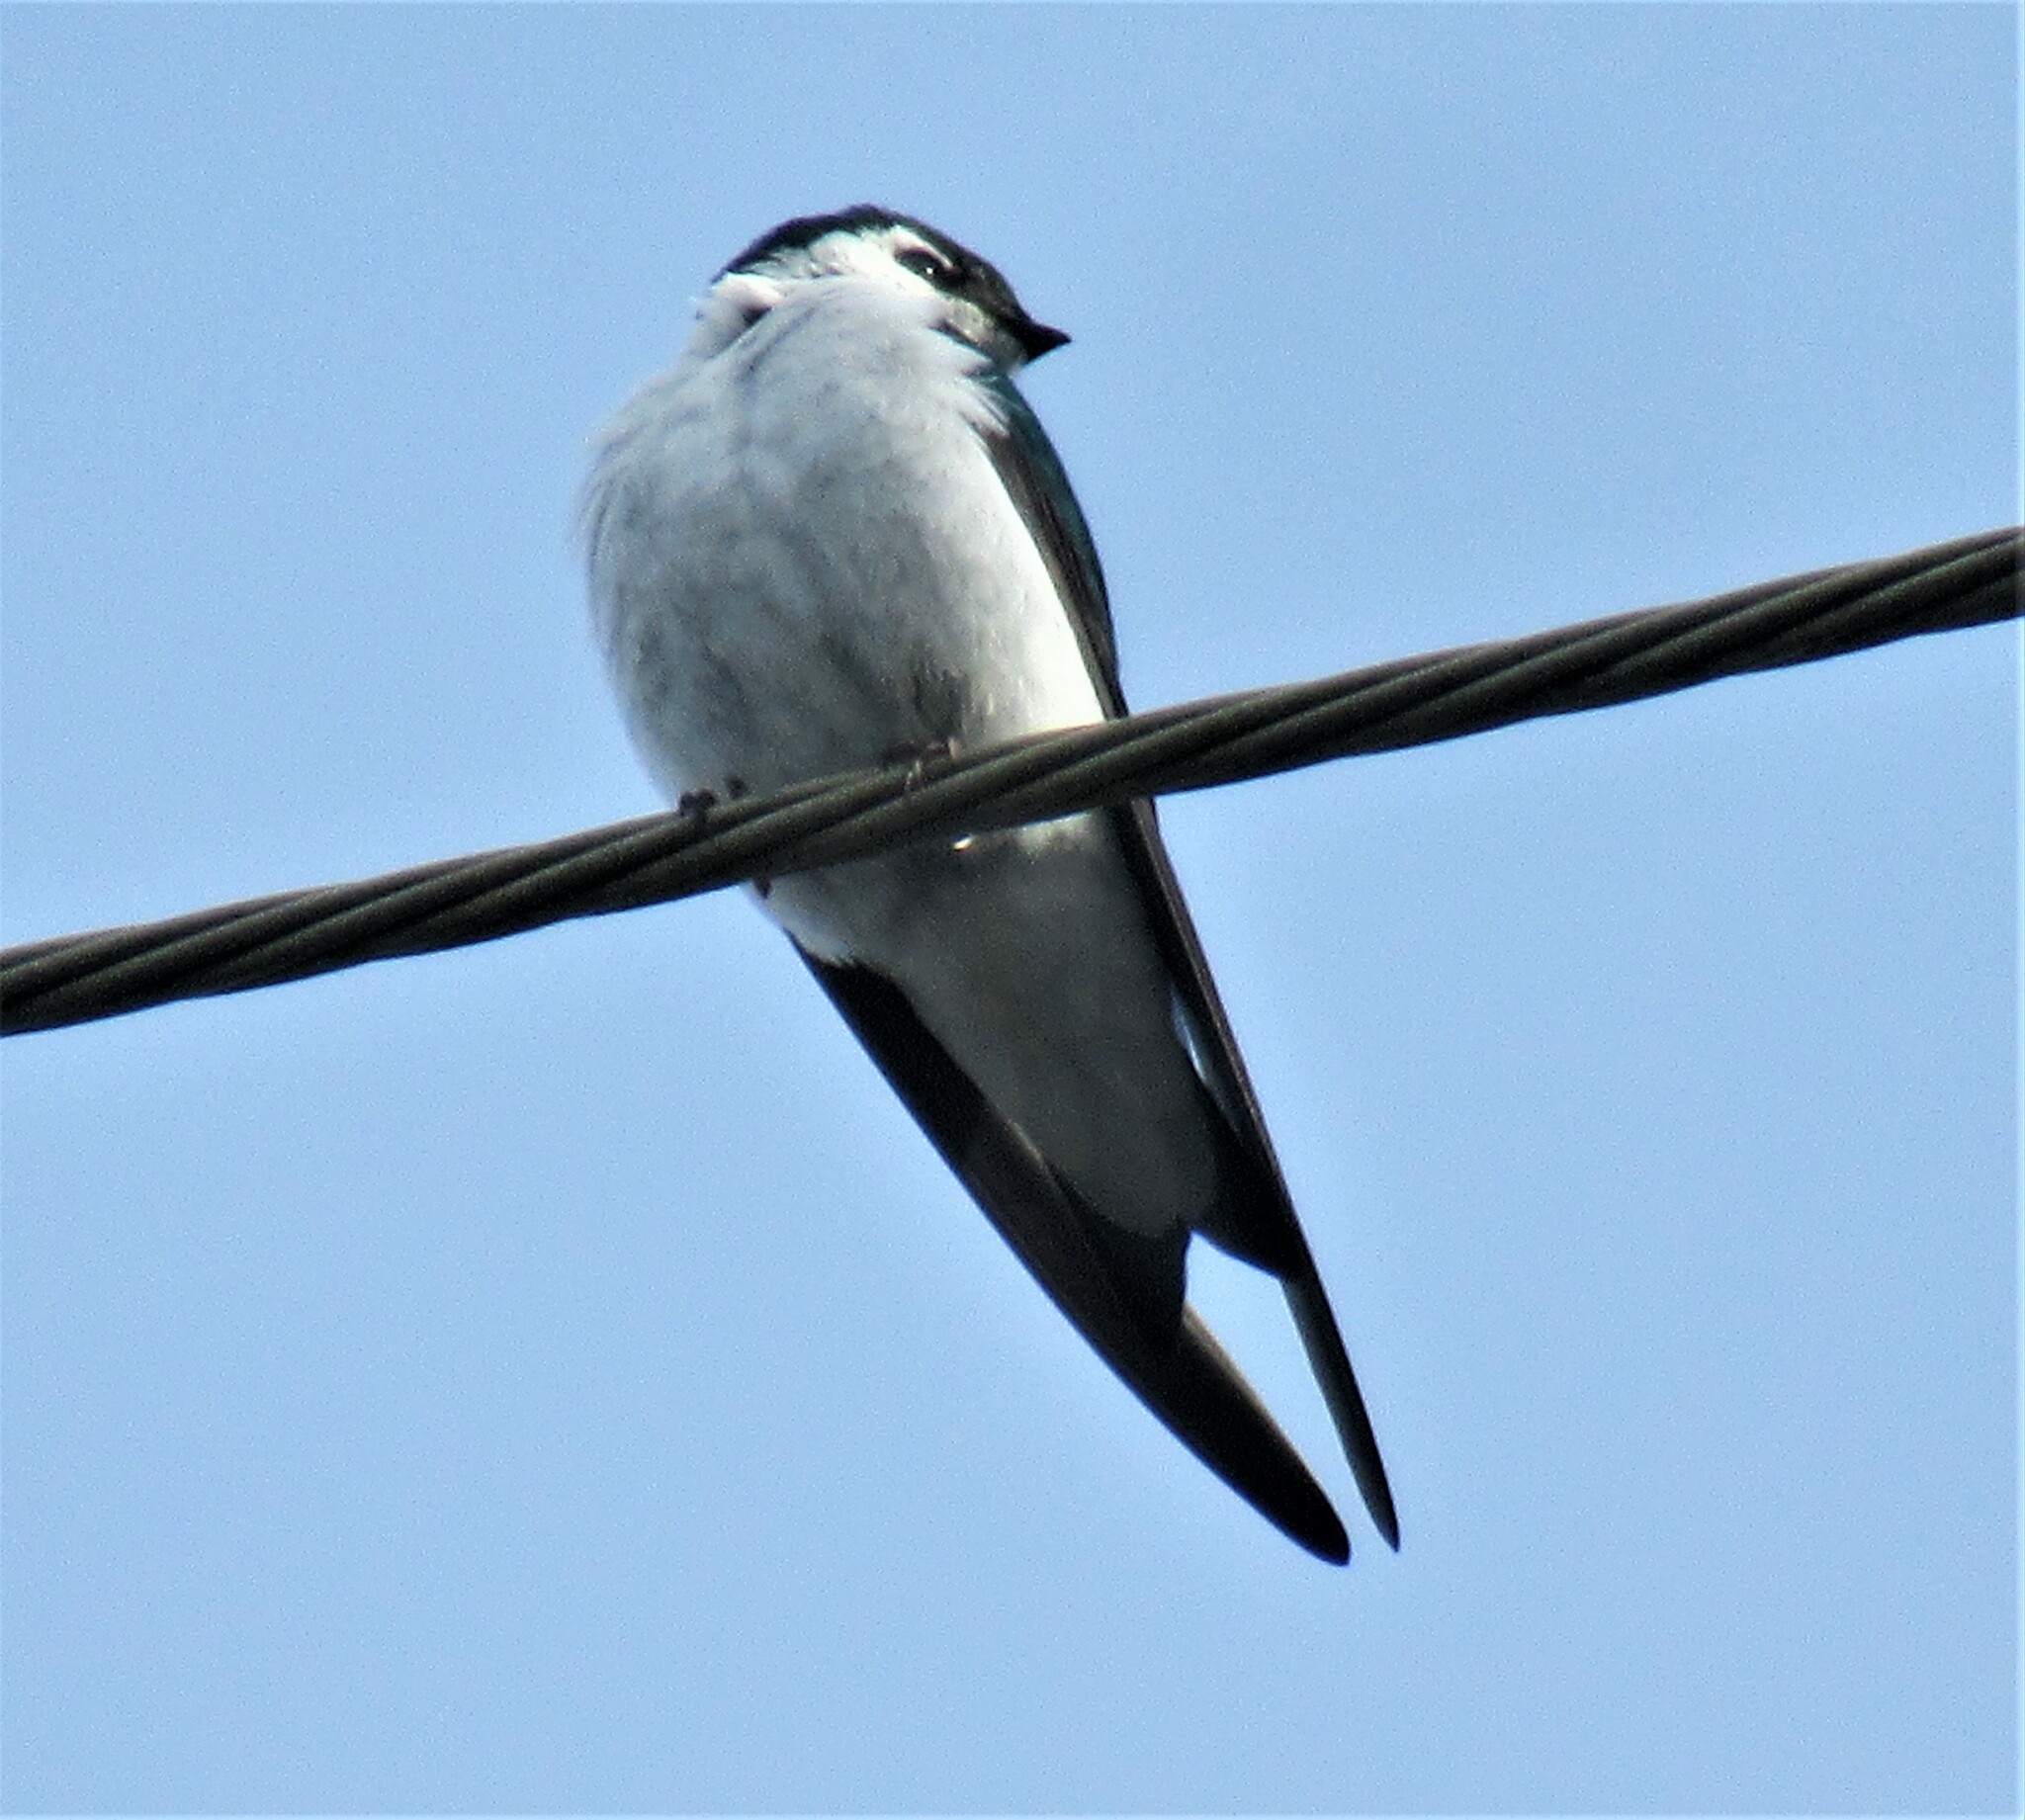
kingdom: Animalia
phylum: Chordata
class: Aves
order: Passeriformes
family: Hirundinidae
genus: Tachycineta
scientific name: Tachycineta thalassina
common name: Violet-green swallow
